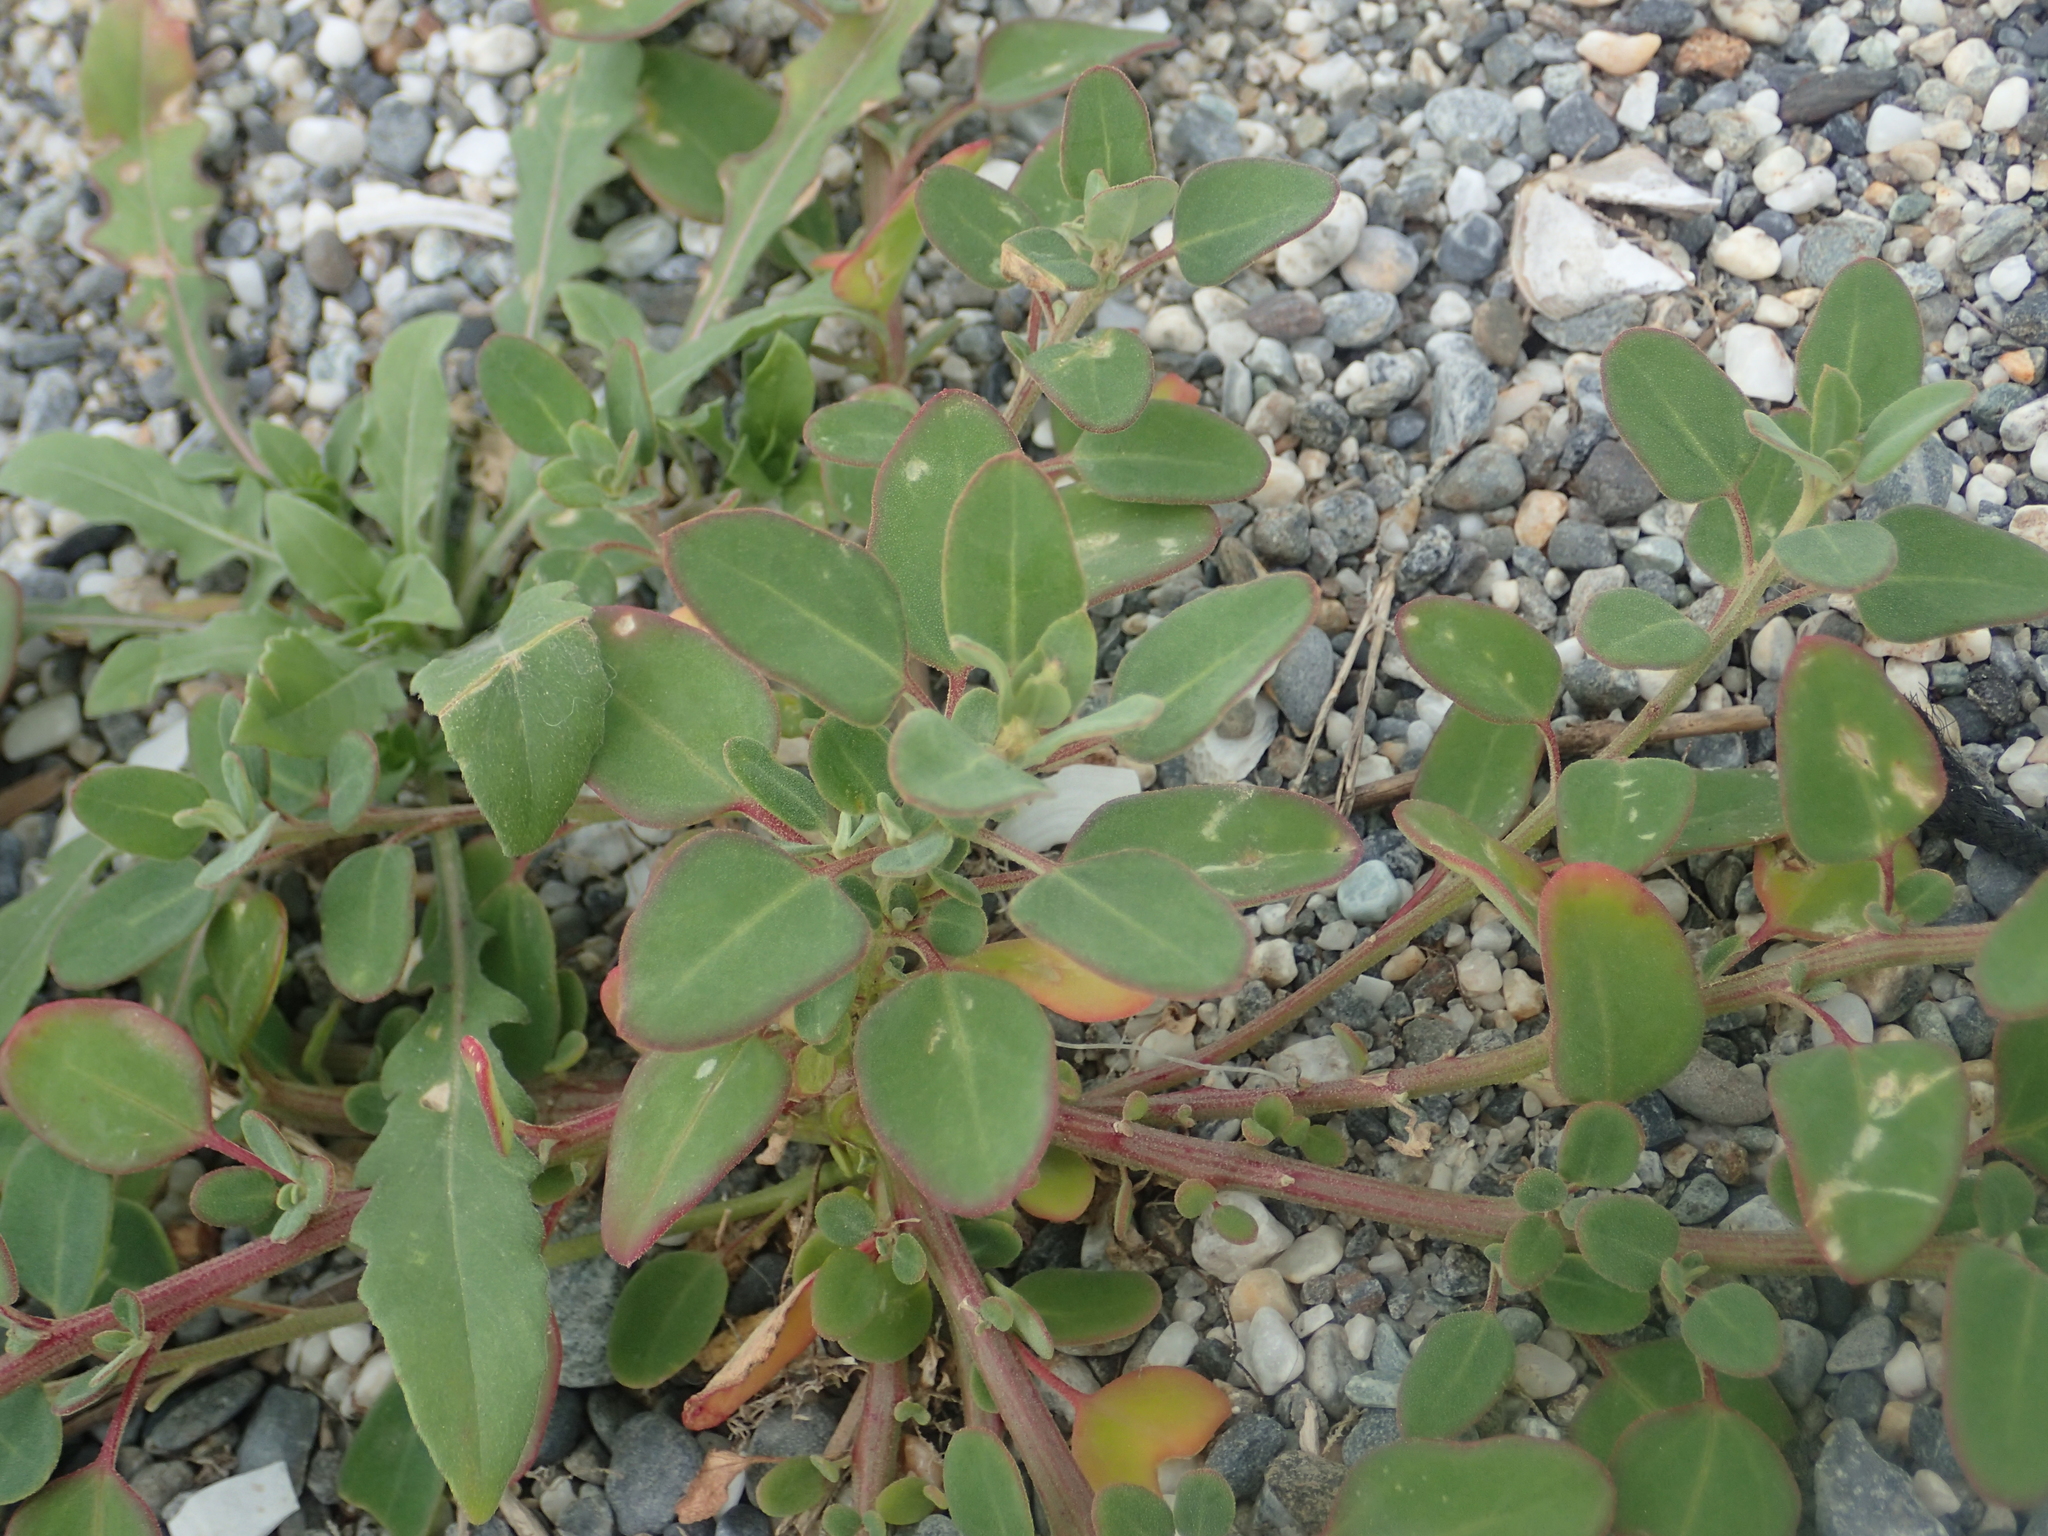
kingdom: Plantae
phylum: Tracheophyta
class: Magnoliopsida
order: Caryophyllales
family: Amaranthaceae
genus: Chenopodium
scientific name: Chenopodium acuminatum
